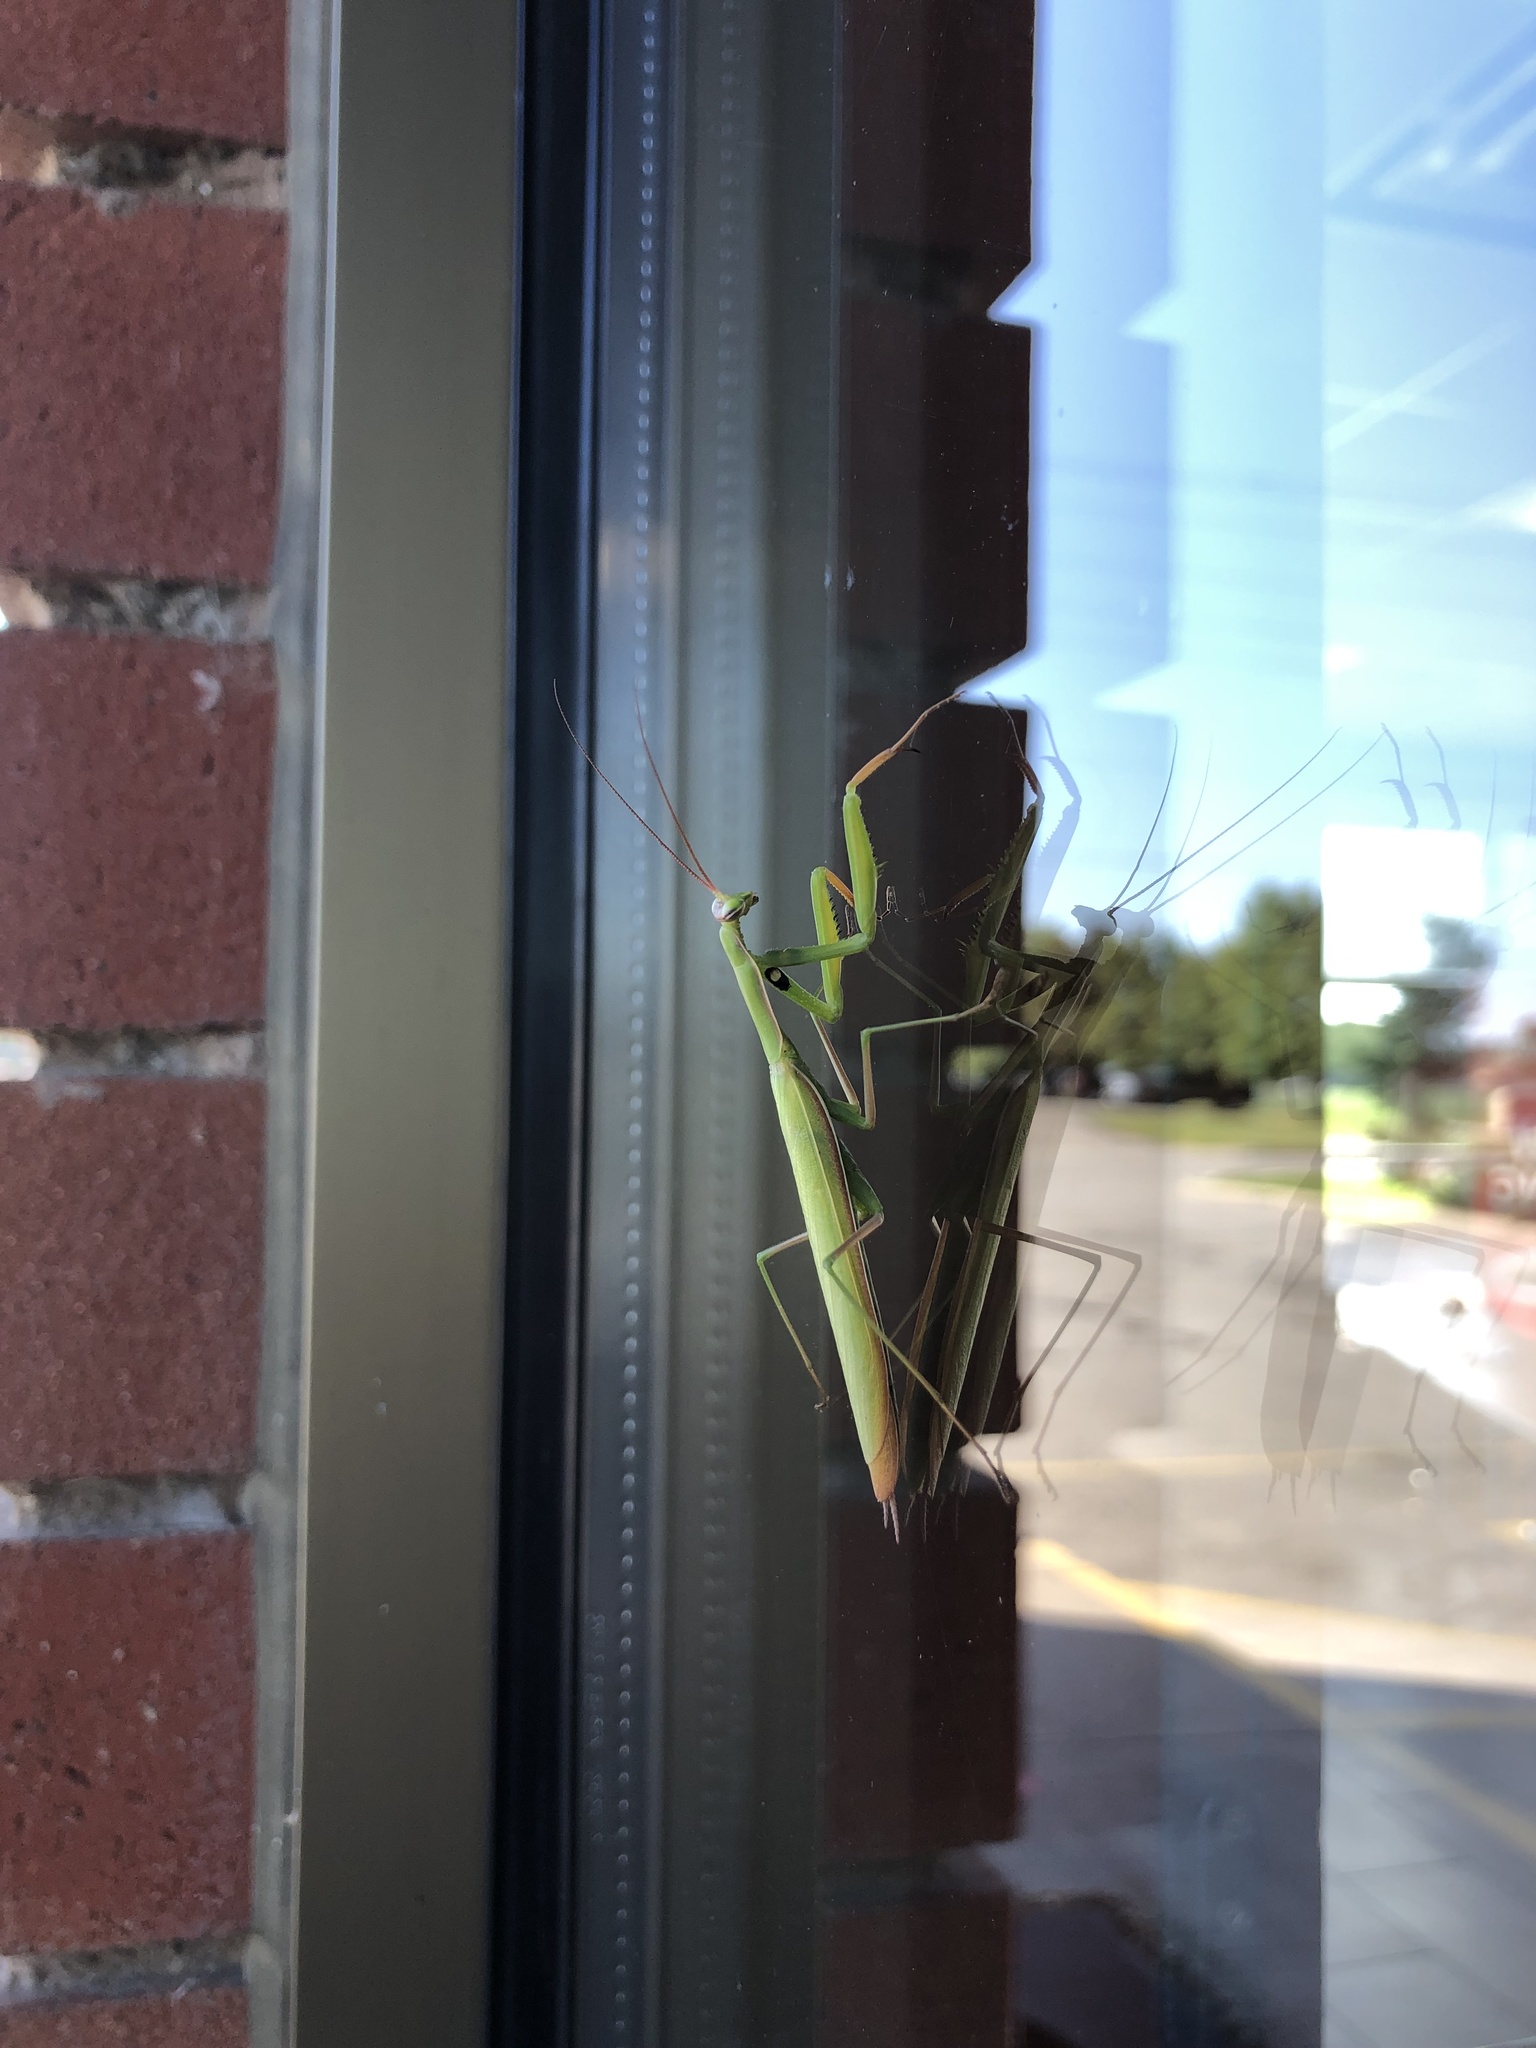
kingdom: Animalia
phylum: Arthropoda
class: Insecta
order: Mantodea
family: Mantidae
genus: Mantis
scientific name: Mantis religiosa
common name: Praying mantis
